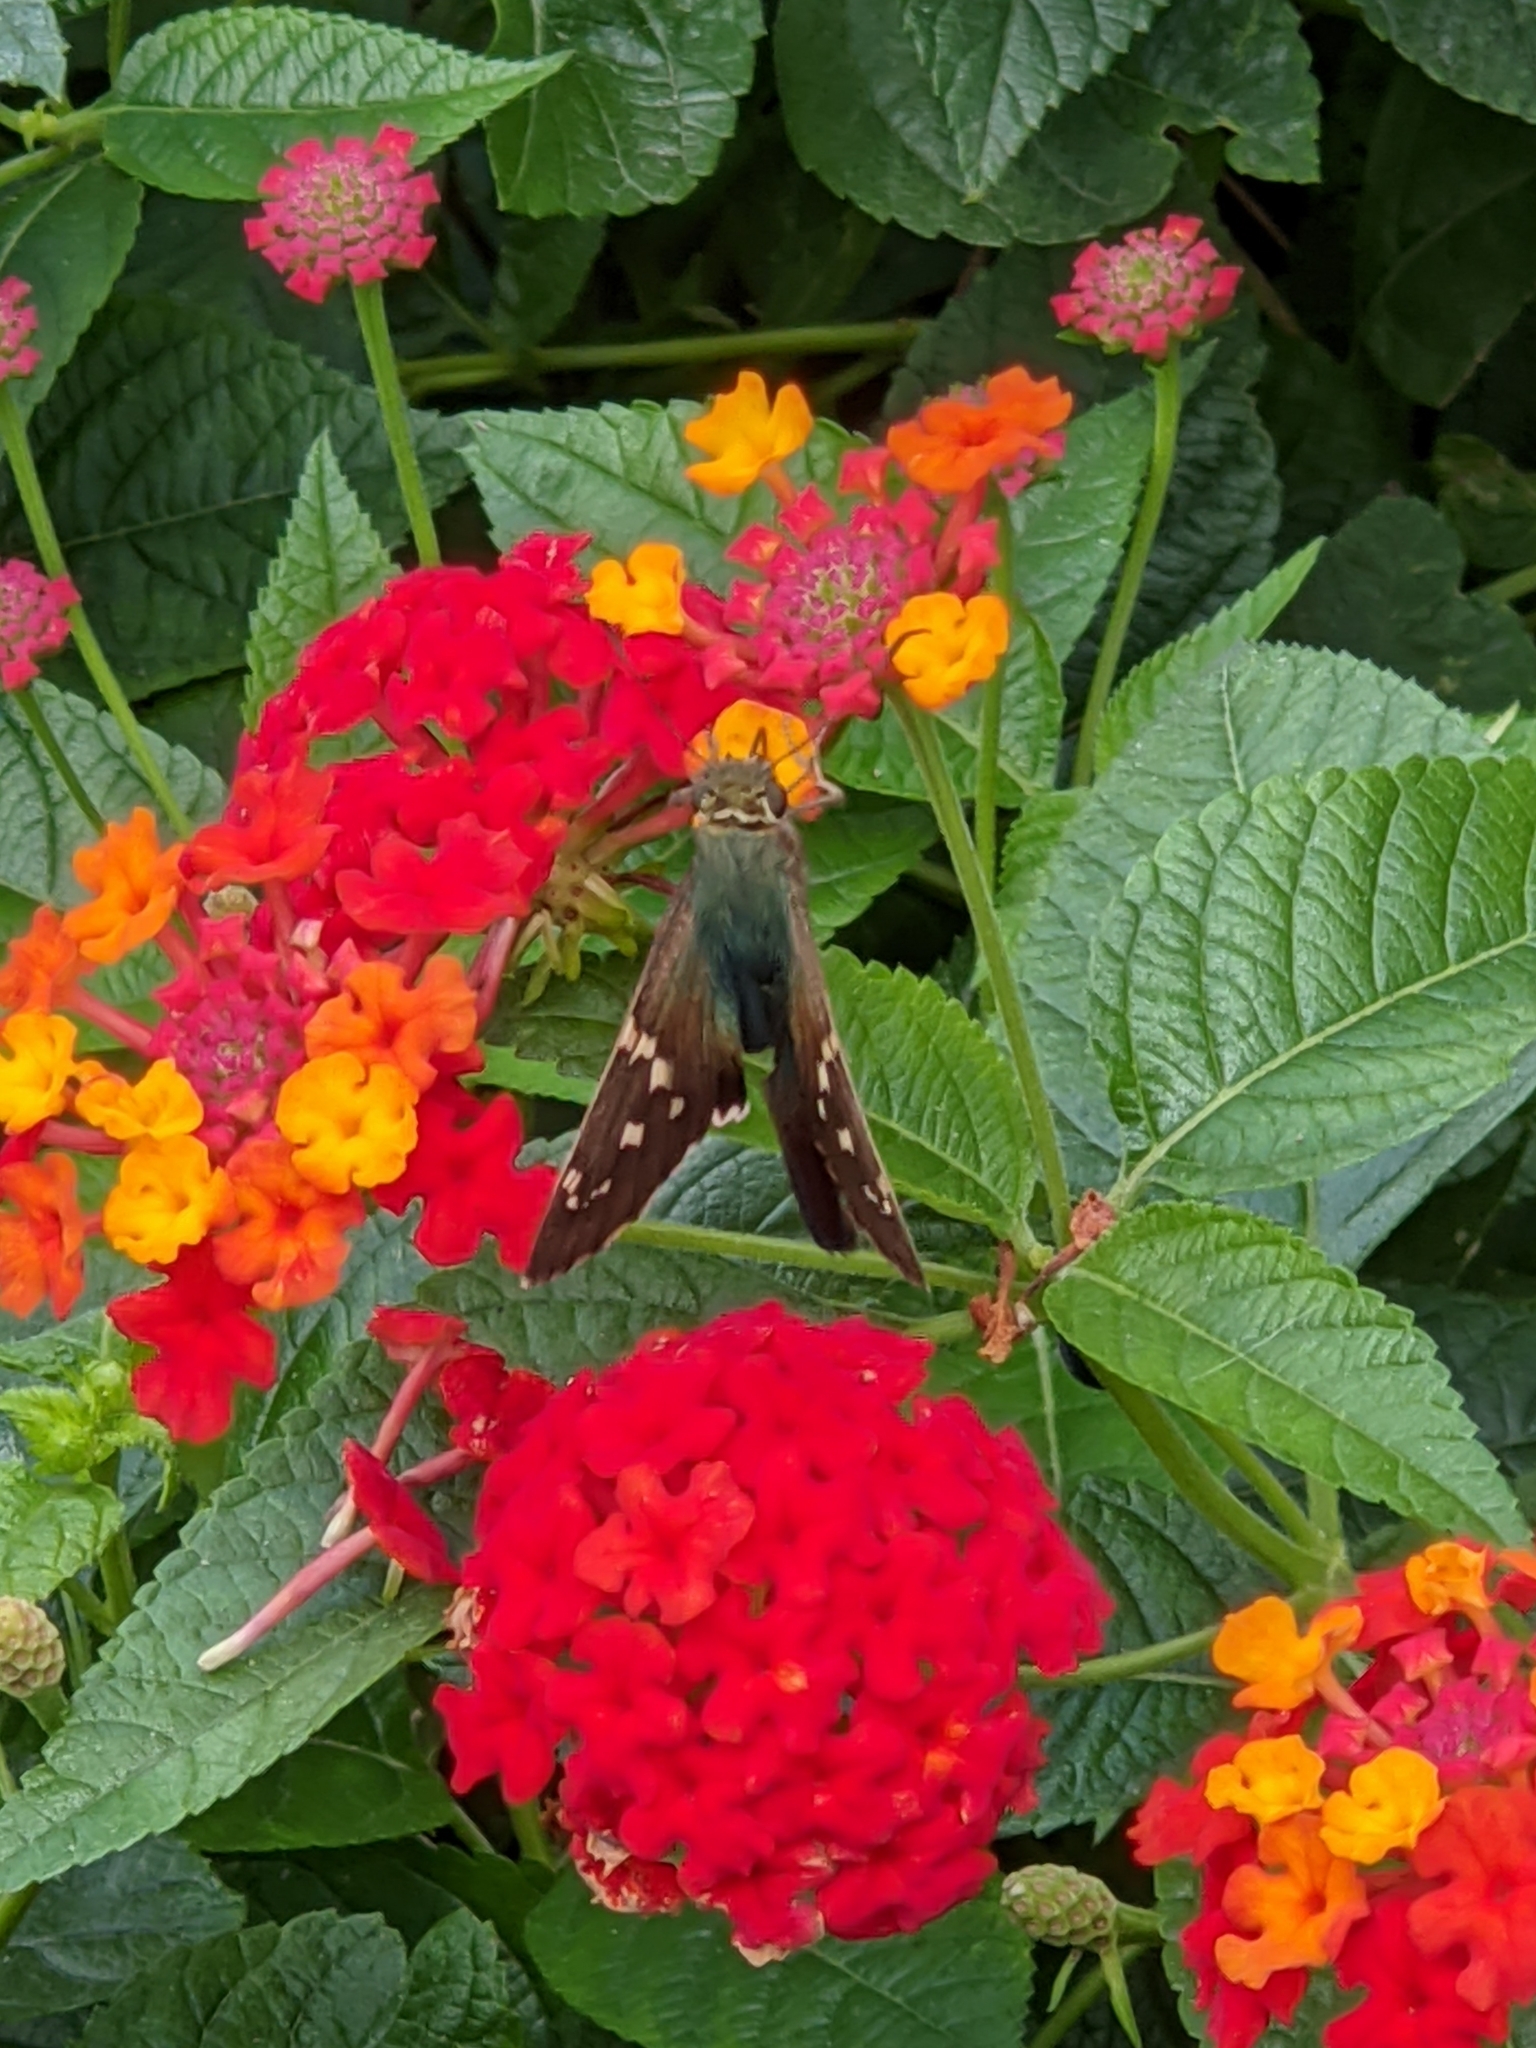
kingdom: Animalia
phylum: Arthropoda
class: Insecta
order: Lepidoptera
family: Hesperiidae
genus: Urbanus
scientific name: Urbanus proteus
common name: Long-tailed skipper
